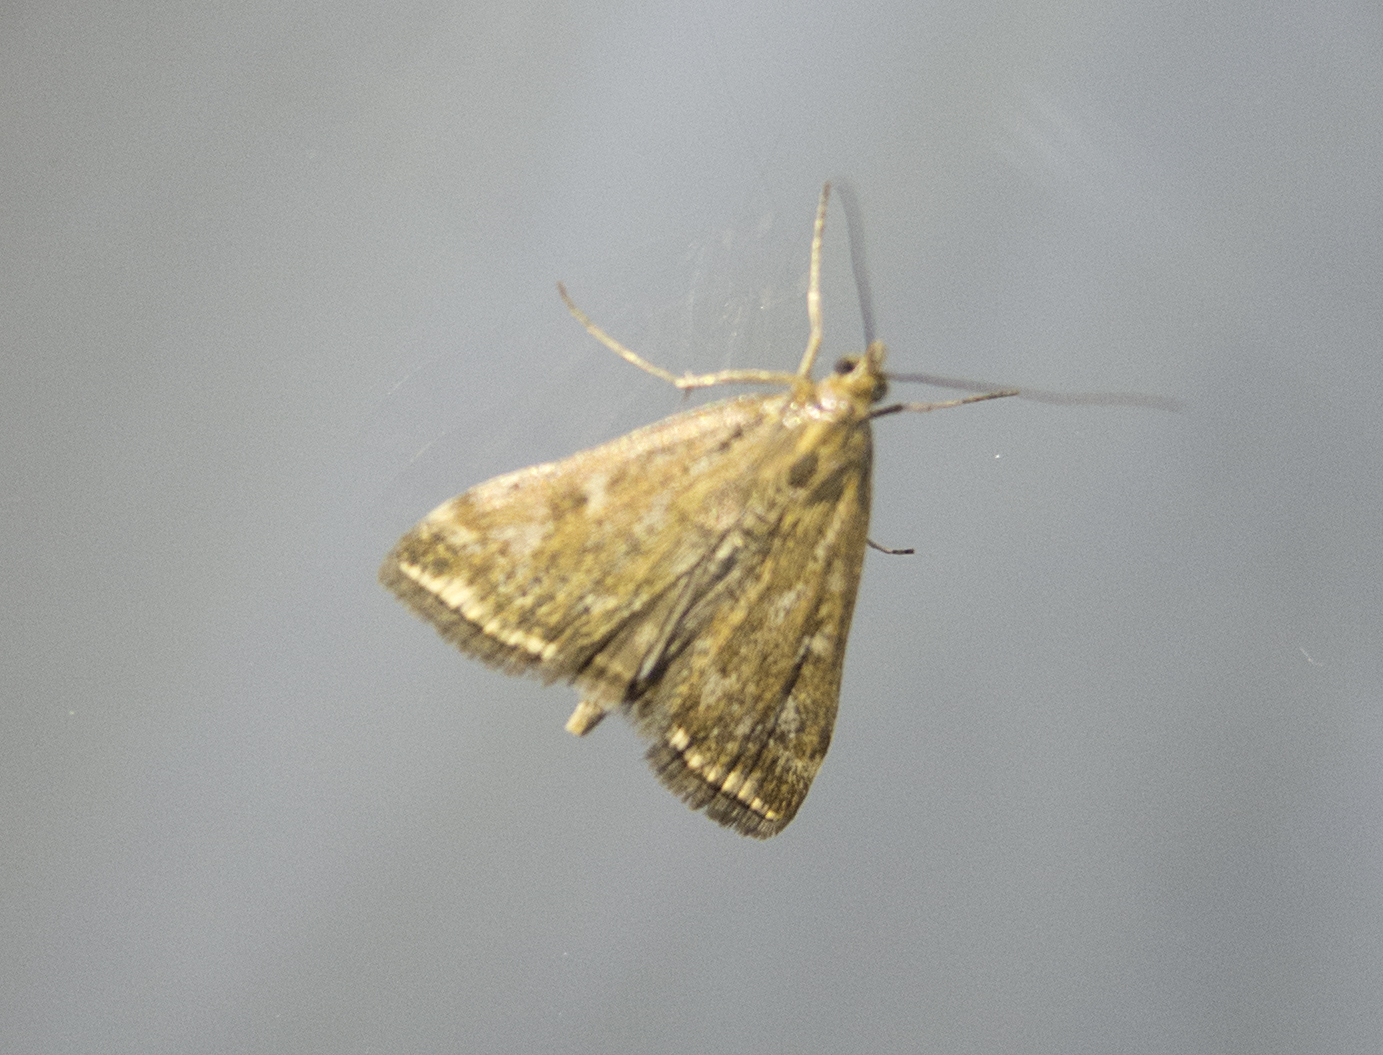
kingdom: Animalia
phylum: Arthropoda
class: Insecta
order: Lepidoptera
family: Crambidae
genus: Loxostege
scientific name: Loxostege sticticalis
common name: Crambid moth
